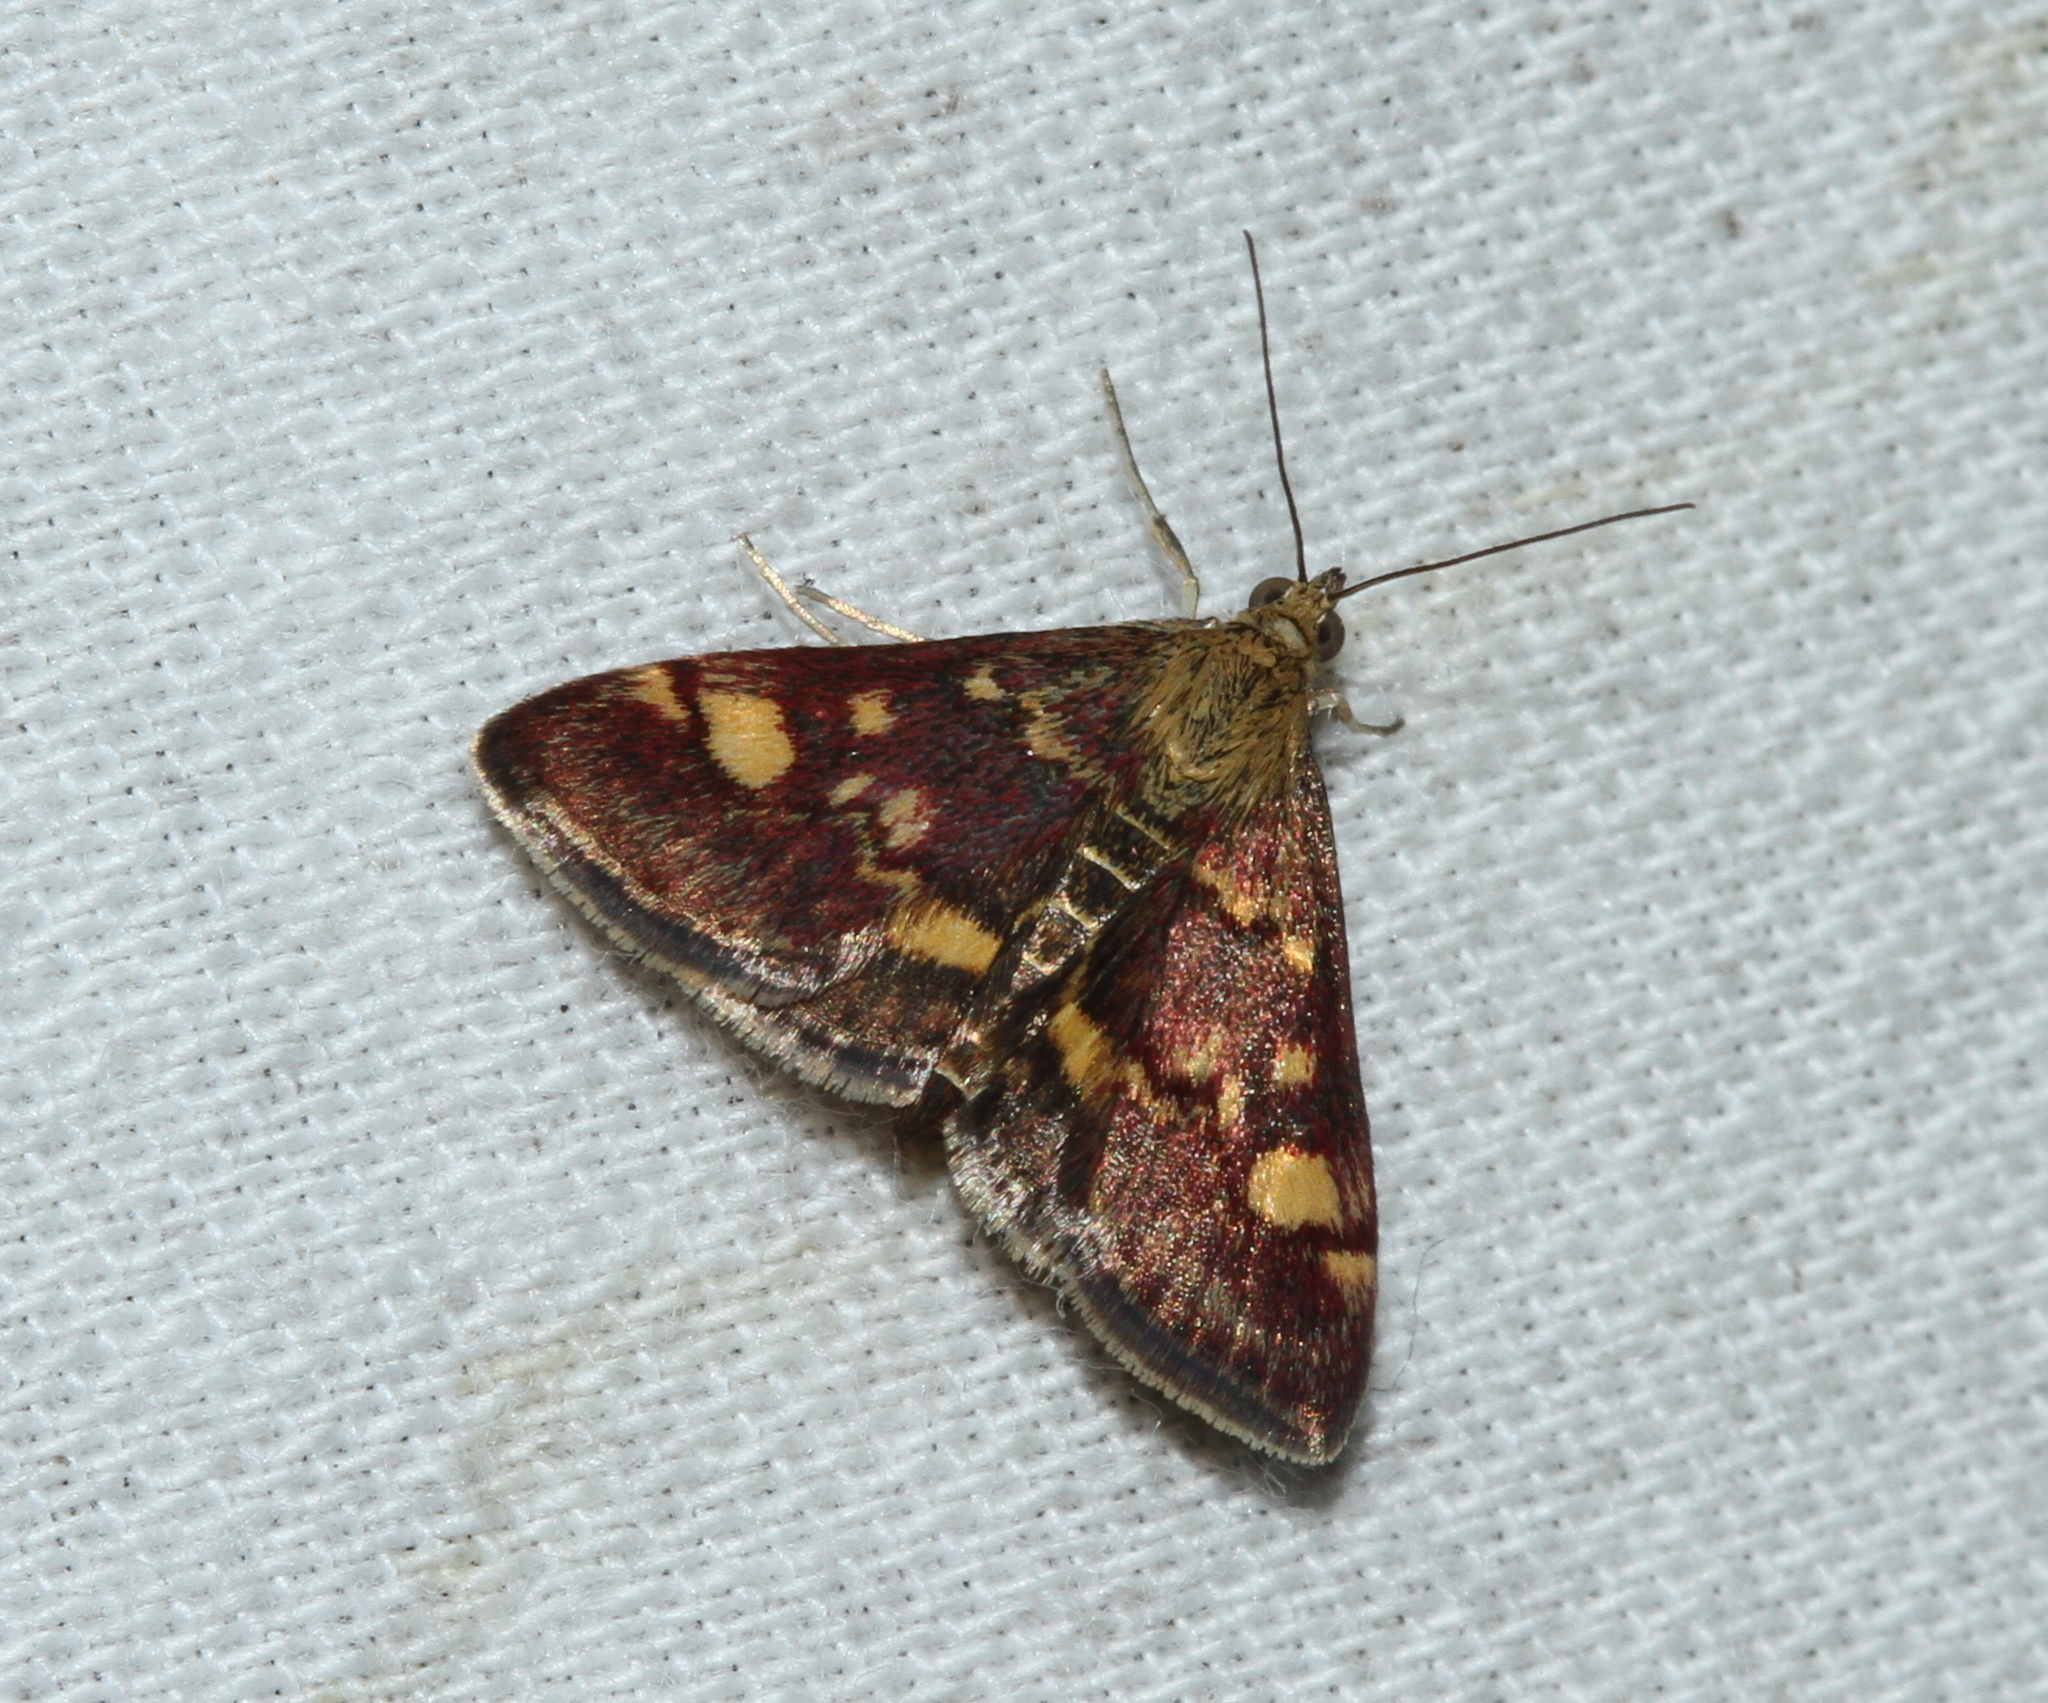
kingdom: Animalia
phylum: Arthropoda
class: Insecta
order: Lepidoptera
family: Crambidae
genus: Pyrausta
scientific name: Pyrausta aurata
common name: Small purple & gold
